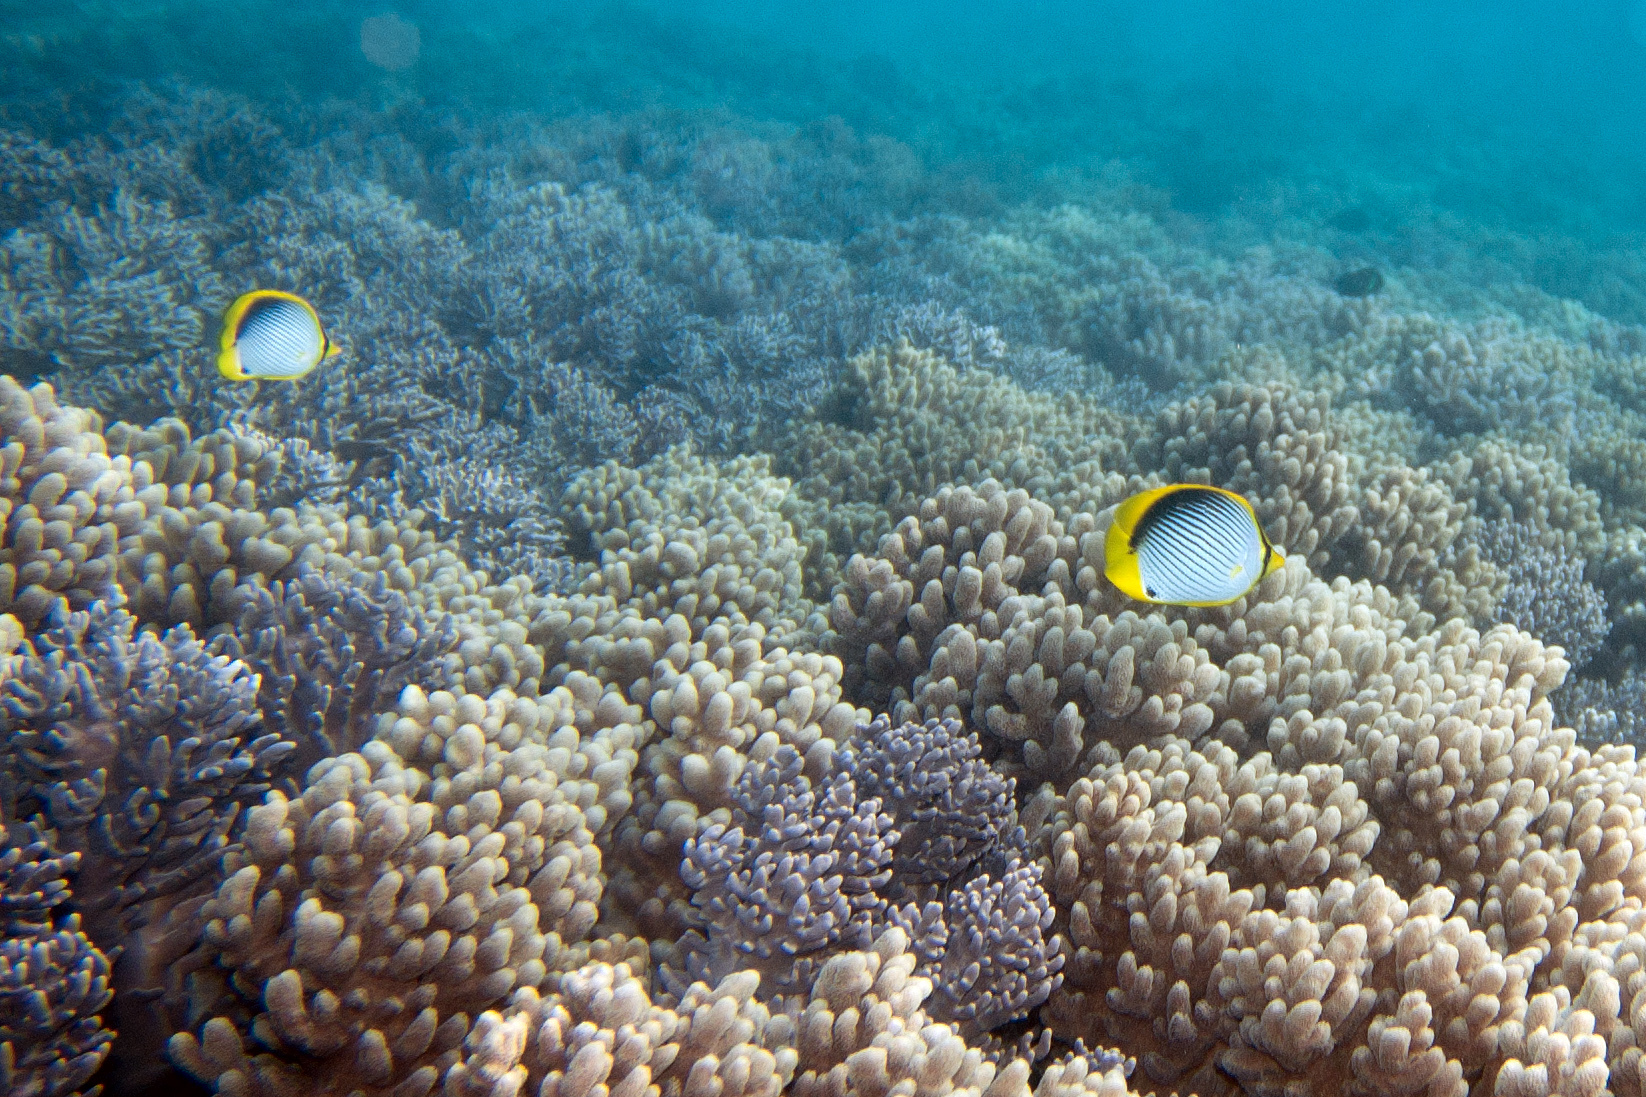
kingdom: Animalia
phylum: Chordata
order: Perciformes
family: Chaetodontidae
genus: Chaetodon
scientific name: Chaetodon melannotus
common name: Blackback butterflyfish
